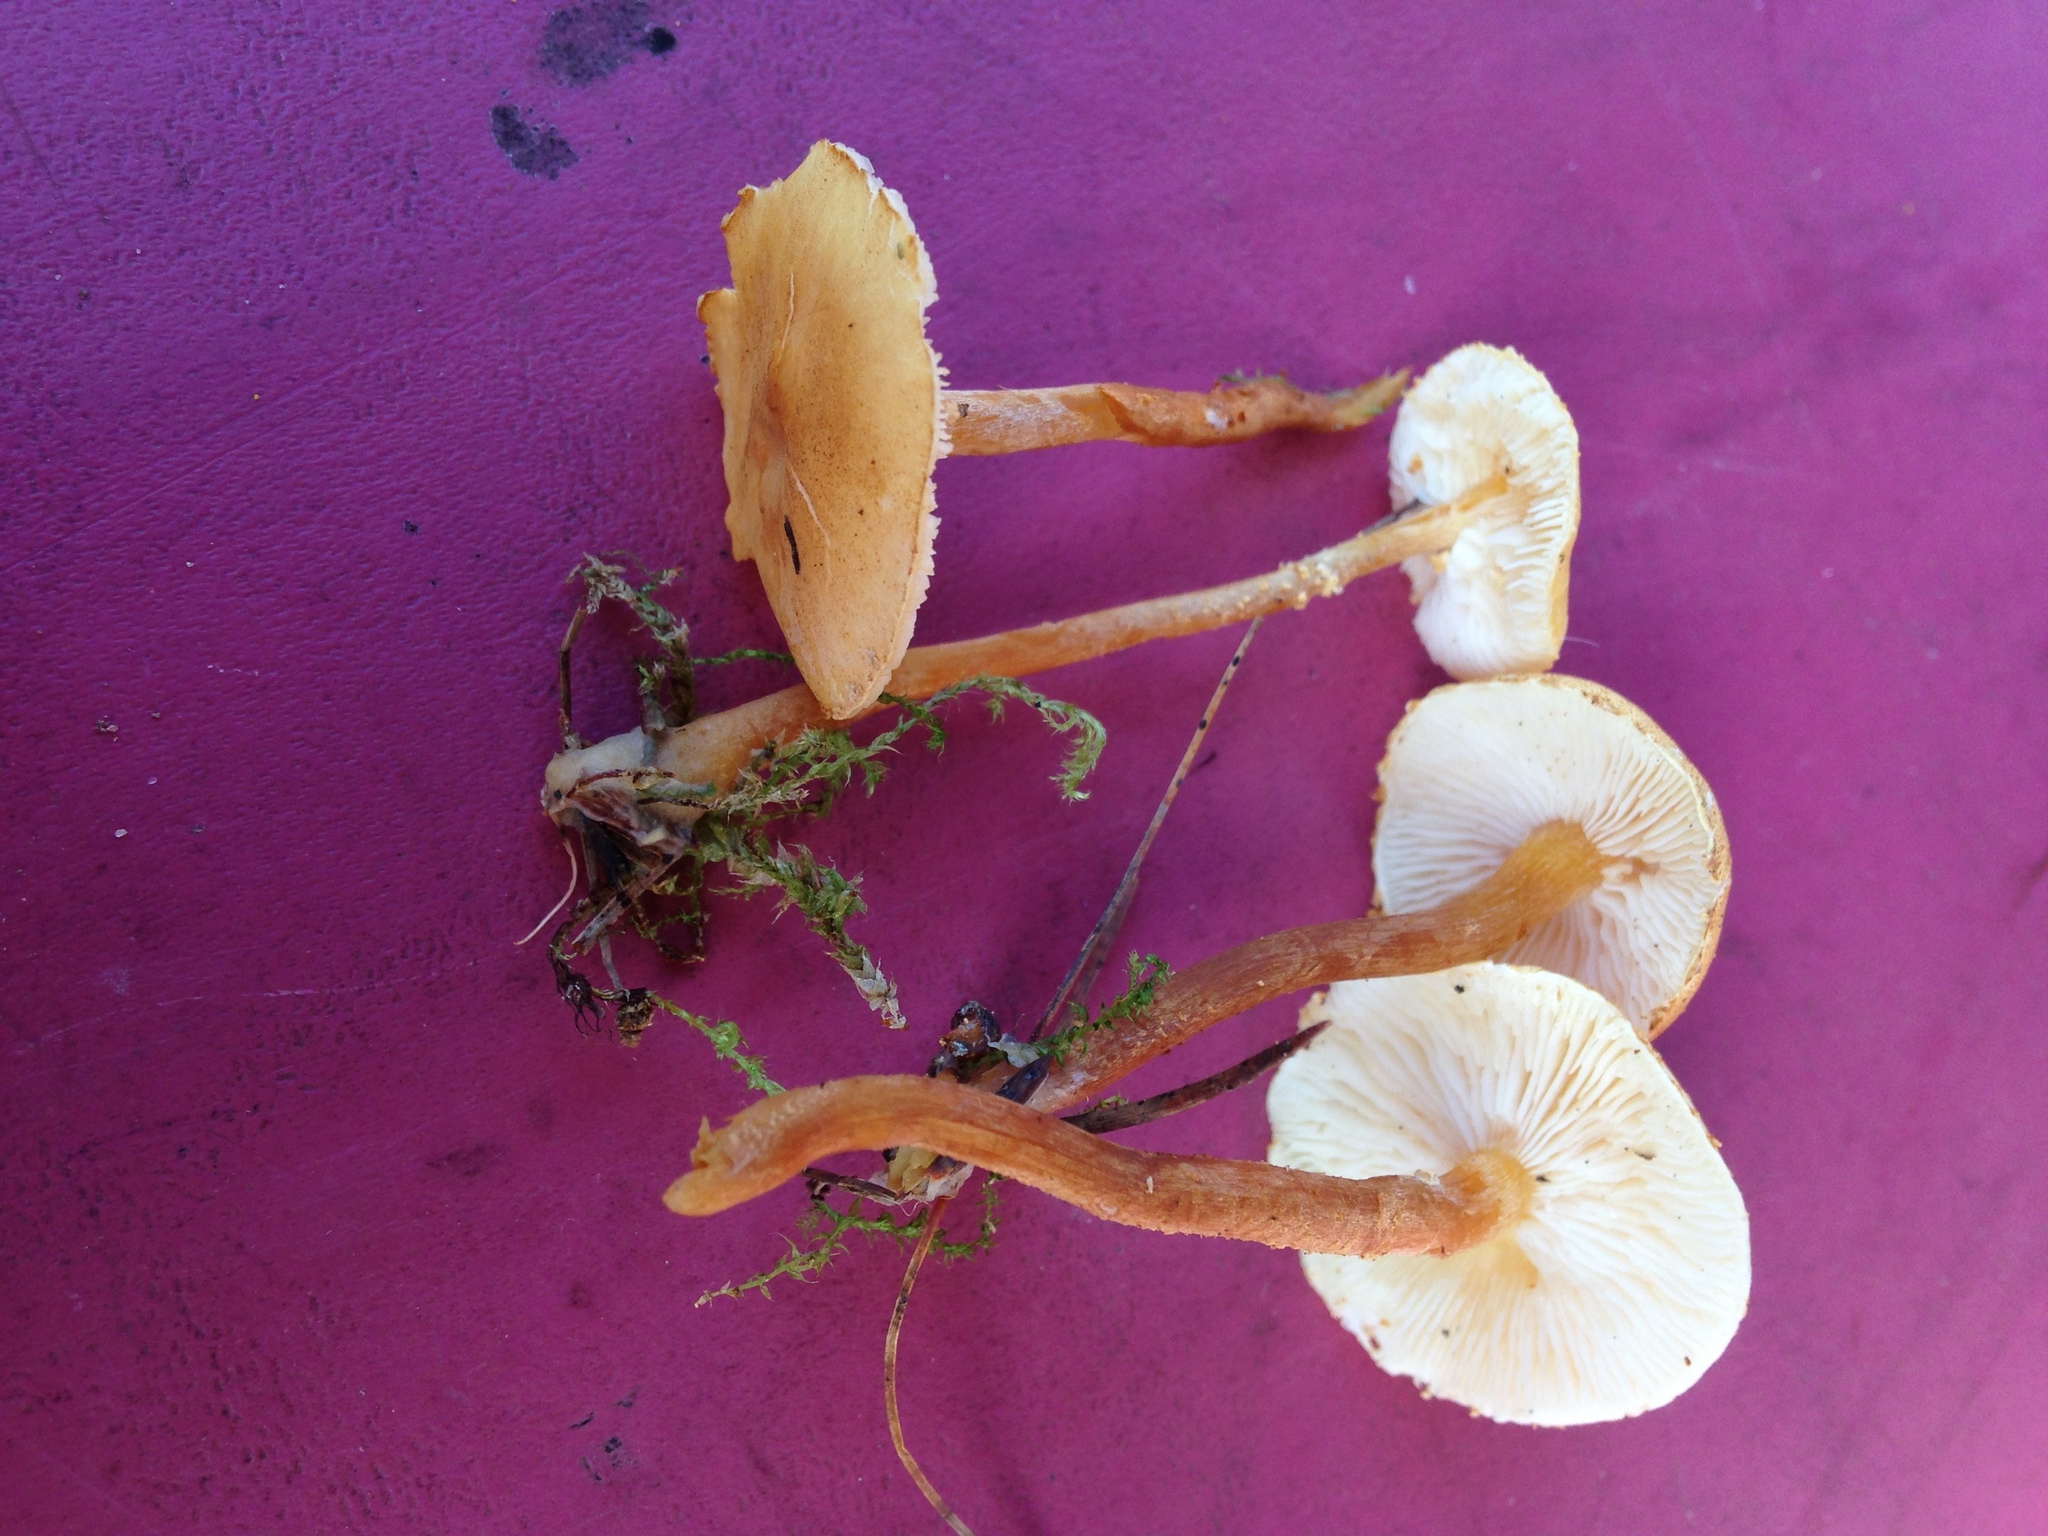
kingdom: Fungi
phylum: Basidiomycota
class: Agaricomycetes
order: Agaricales
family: Tricholomataceae
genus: Cystoderma
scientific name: Cystoderma amianthinum
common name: Earthy powdercap
